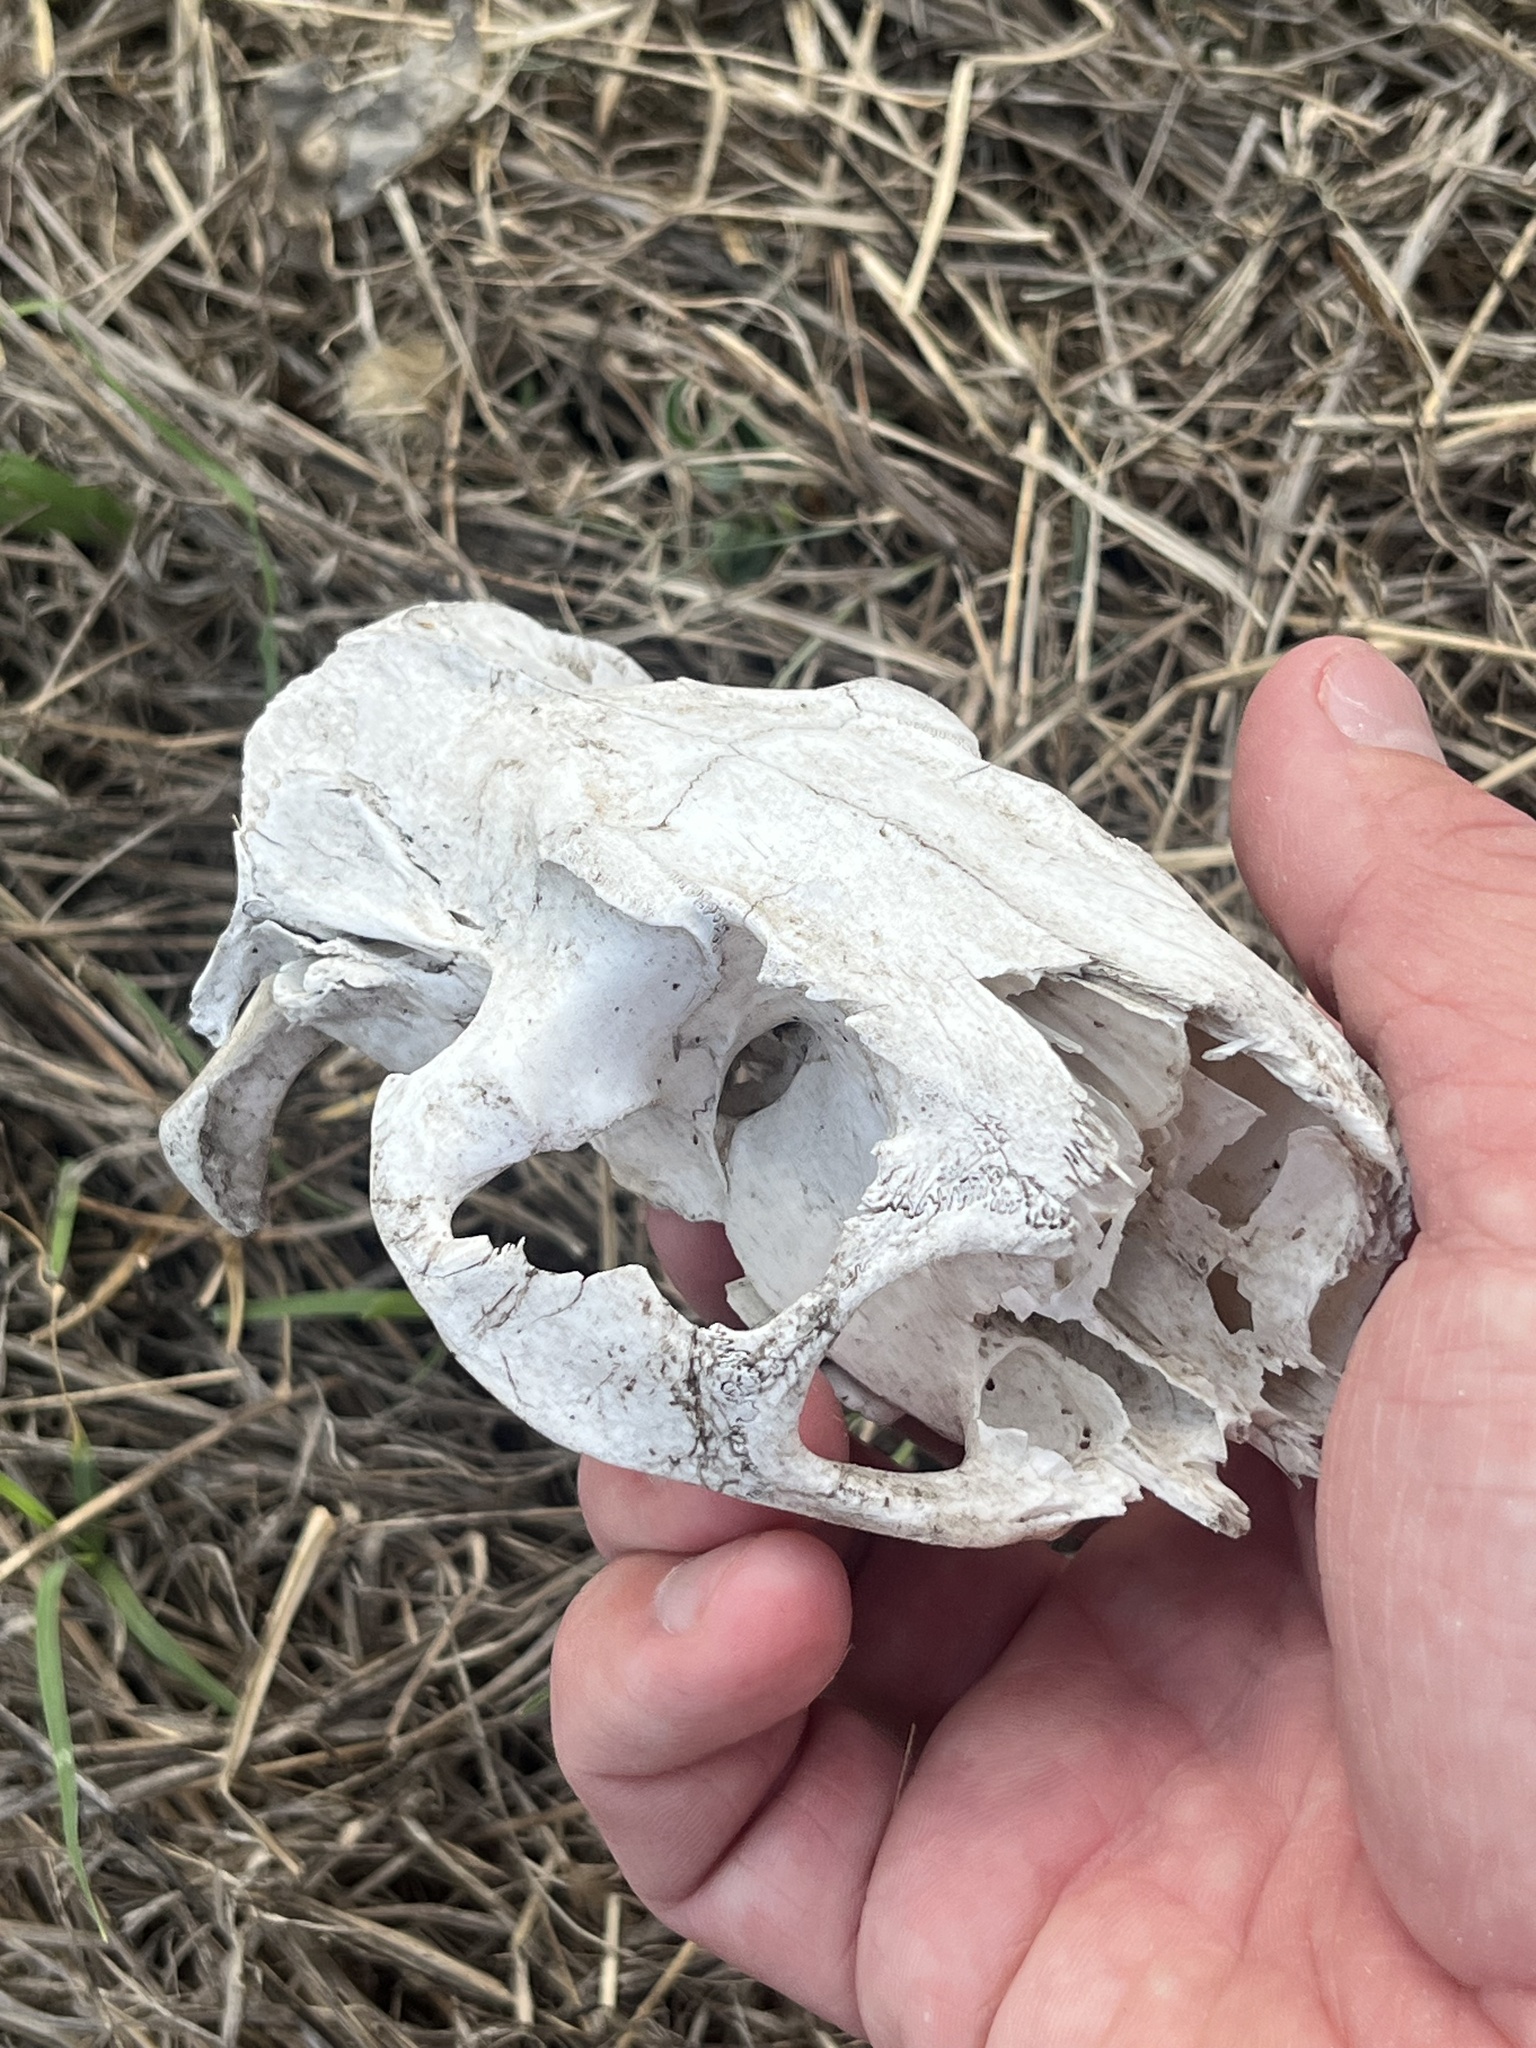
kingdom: Animalia
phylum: Chordata
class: Mammalia
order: Rodentia
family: Myocastoridae
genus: Myocastor
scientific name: Myocastor coypus
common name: Coypu
